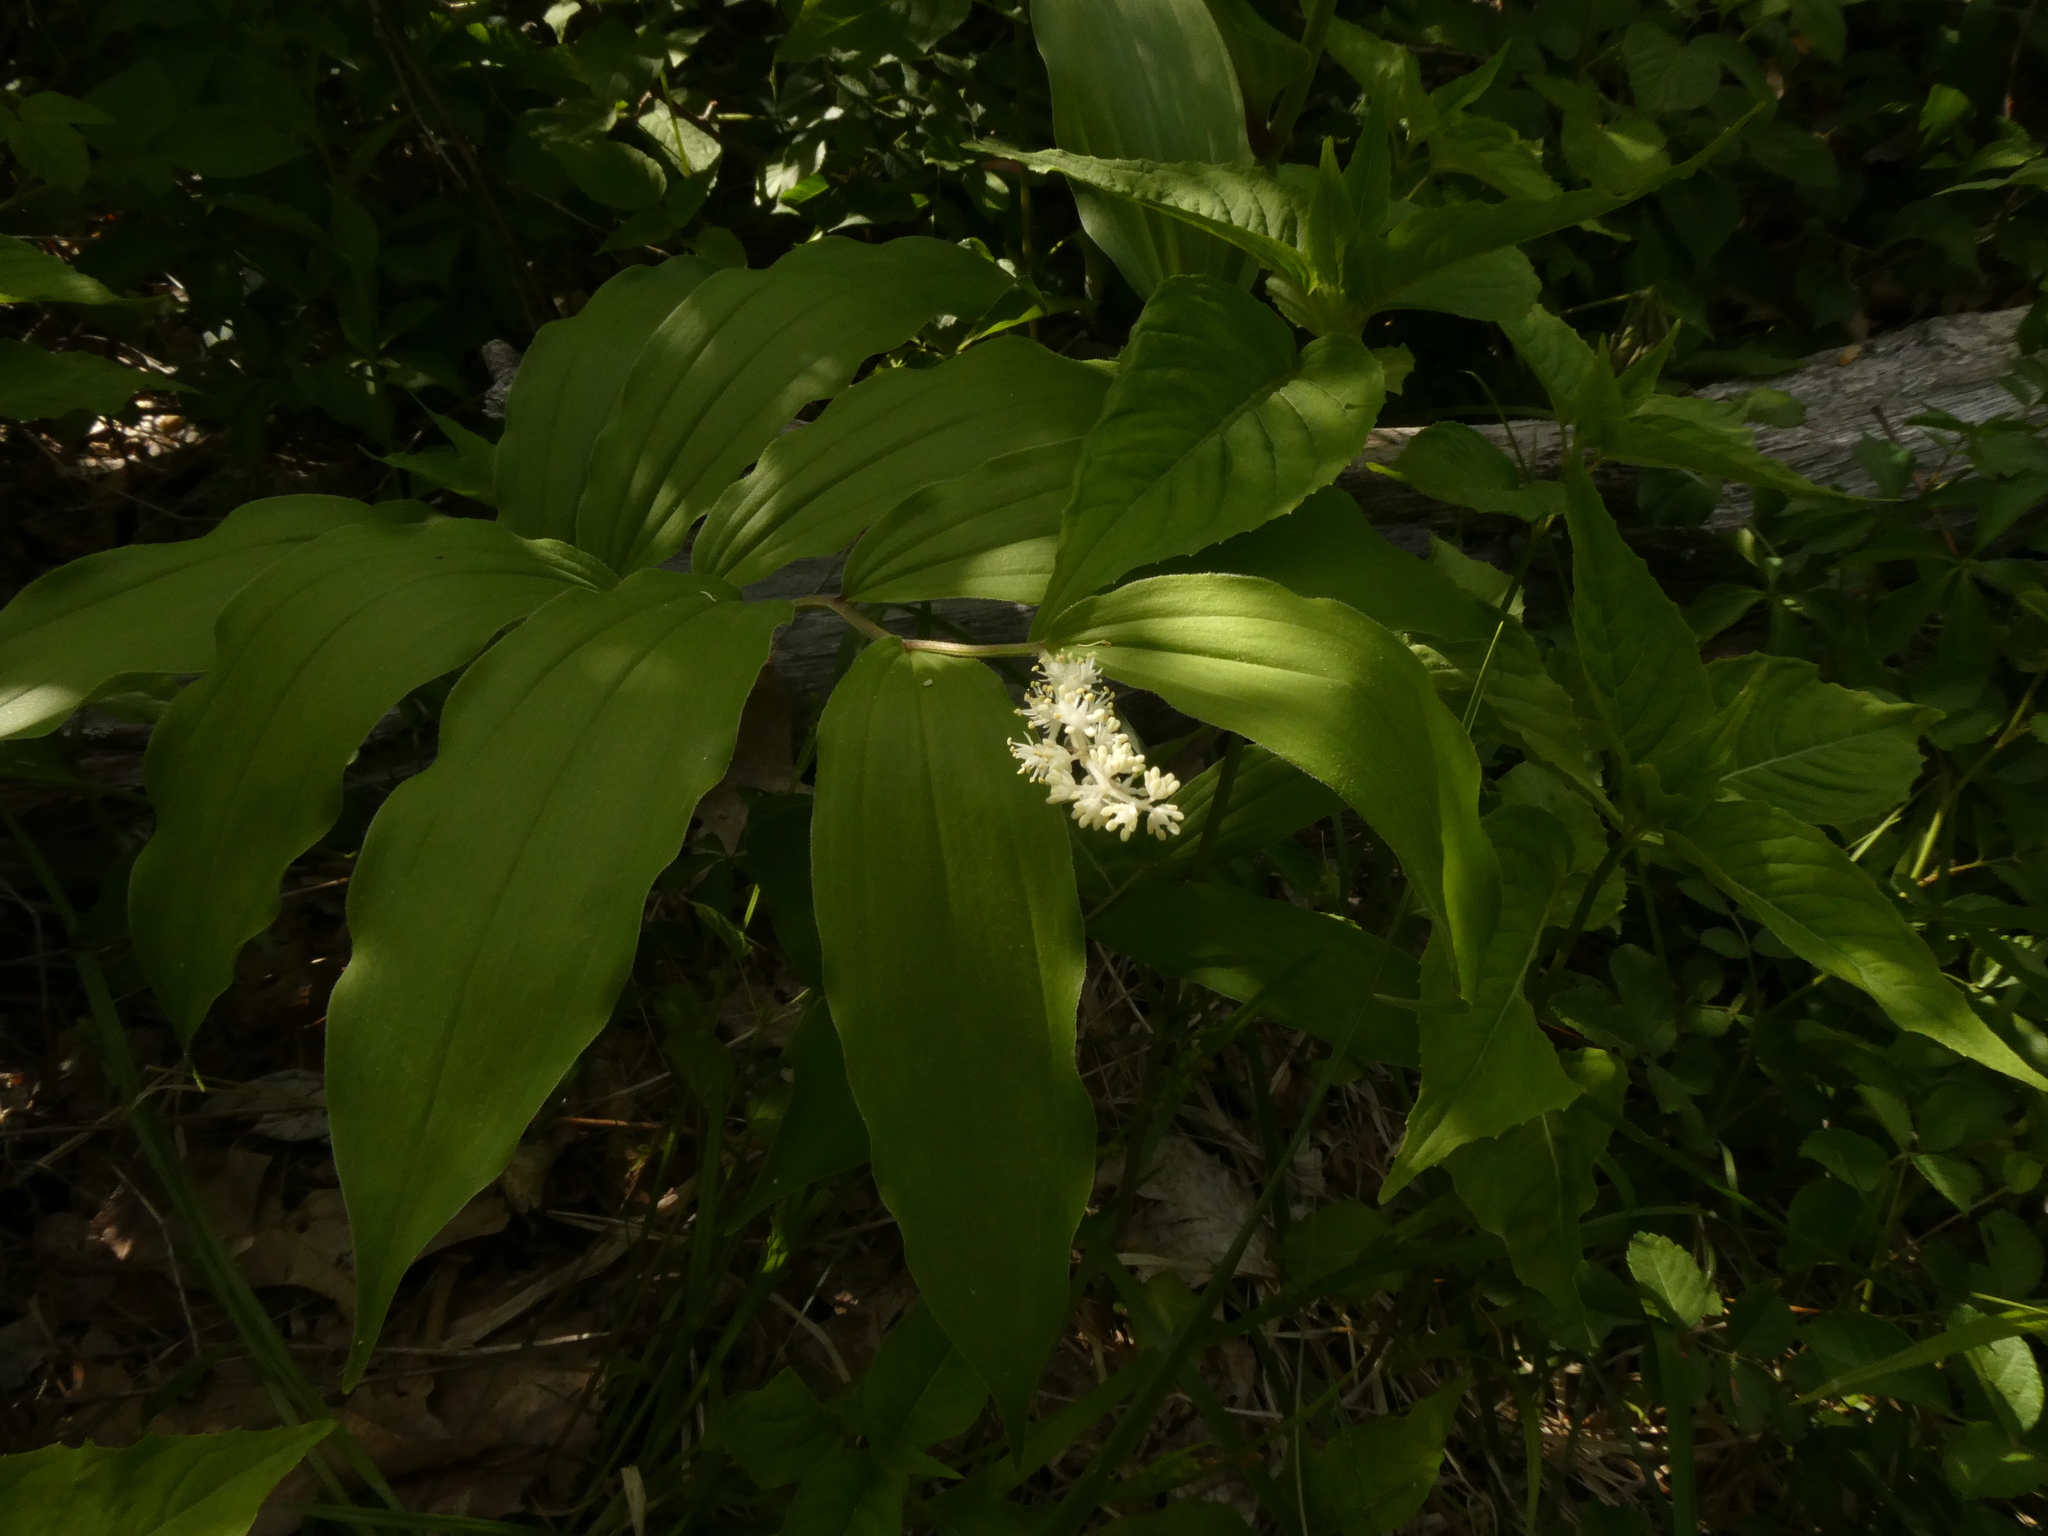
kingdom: Plantae
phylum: Tracheophyta
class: Liliopsida
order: Asparagales
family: Asparagaceae
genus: Maianthemum
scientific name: Maianthemum racemosum
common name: False spikenard
